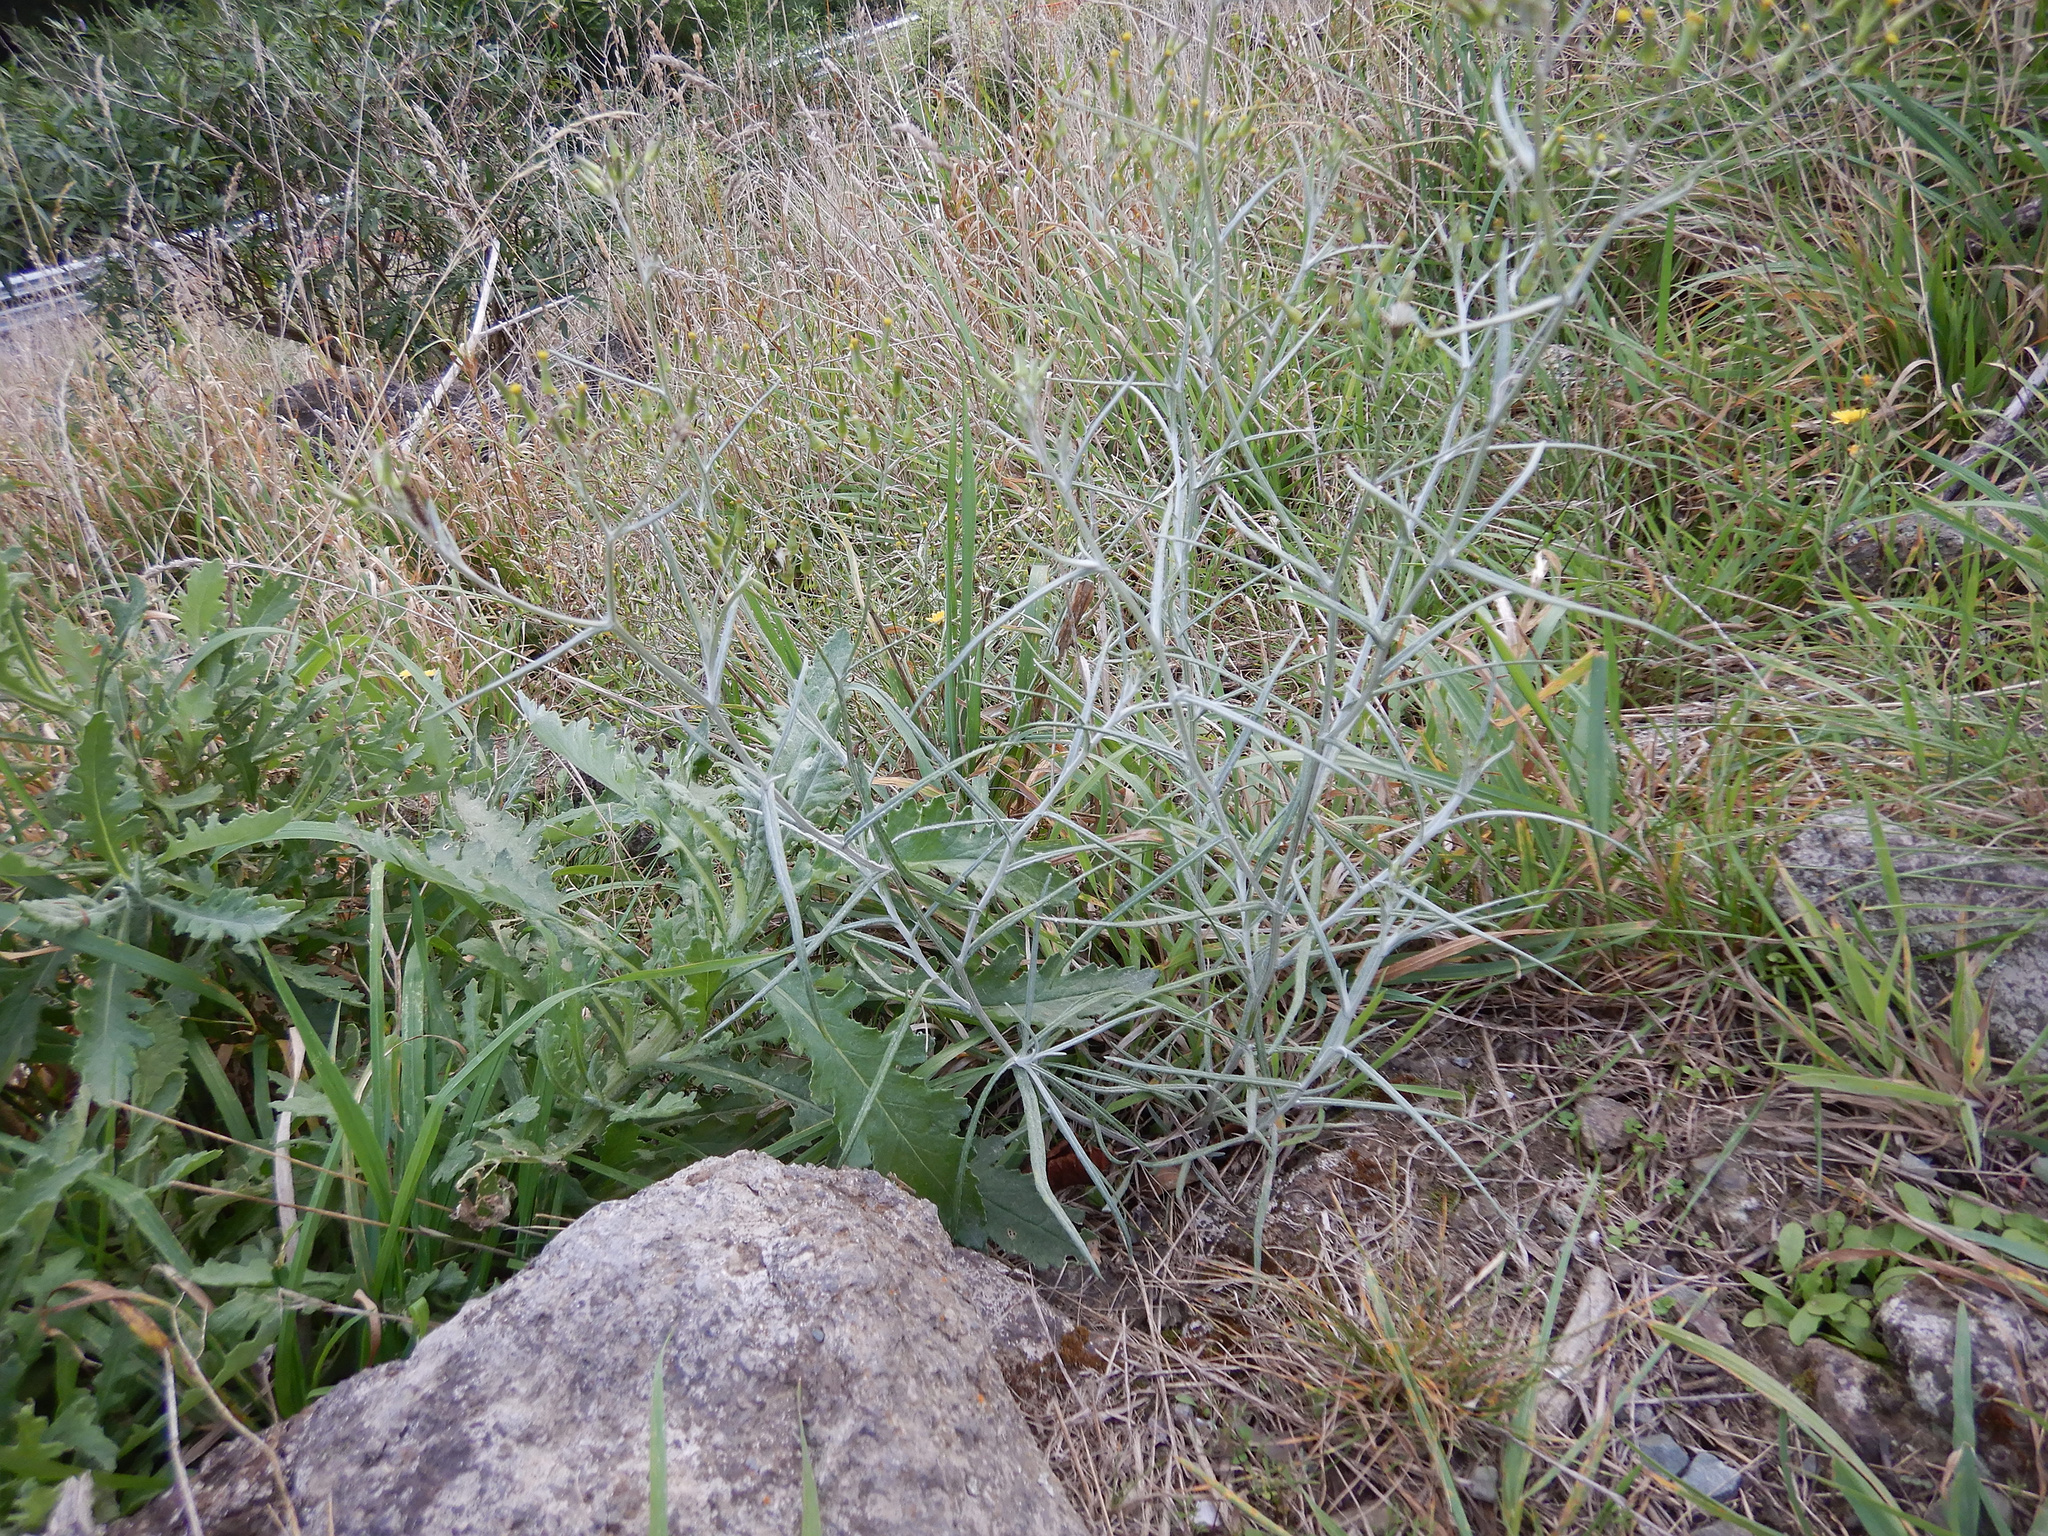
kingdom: Plantae
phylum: Tracheophyta
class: Magnoliopsida
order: Asterales
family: Asteraceae
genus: Senecio
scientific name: Senecio quadridentatus
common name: Cotton fireweed
